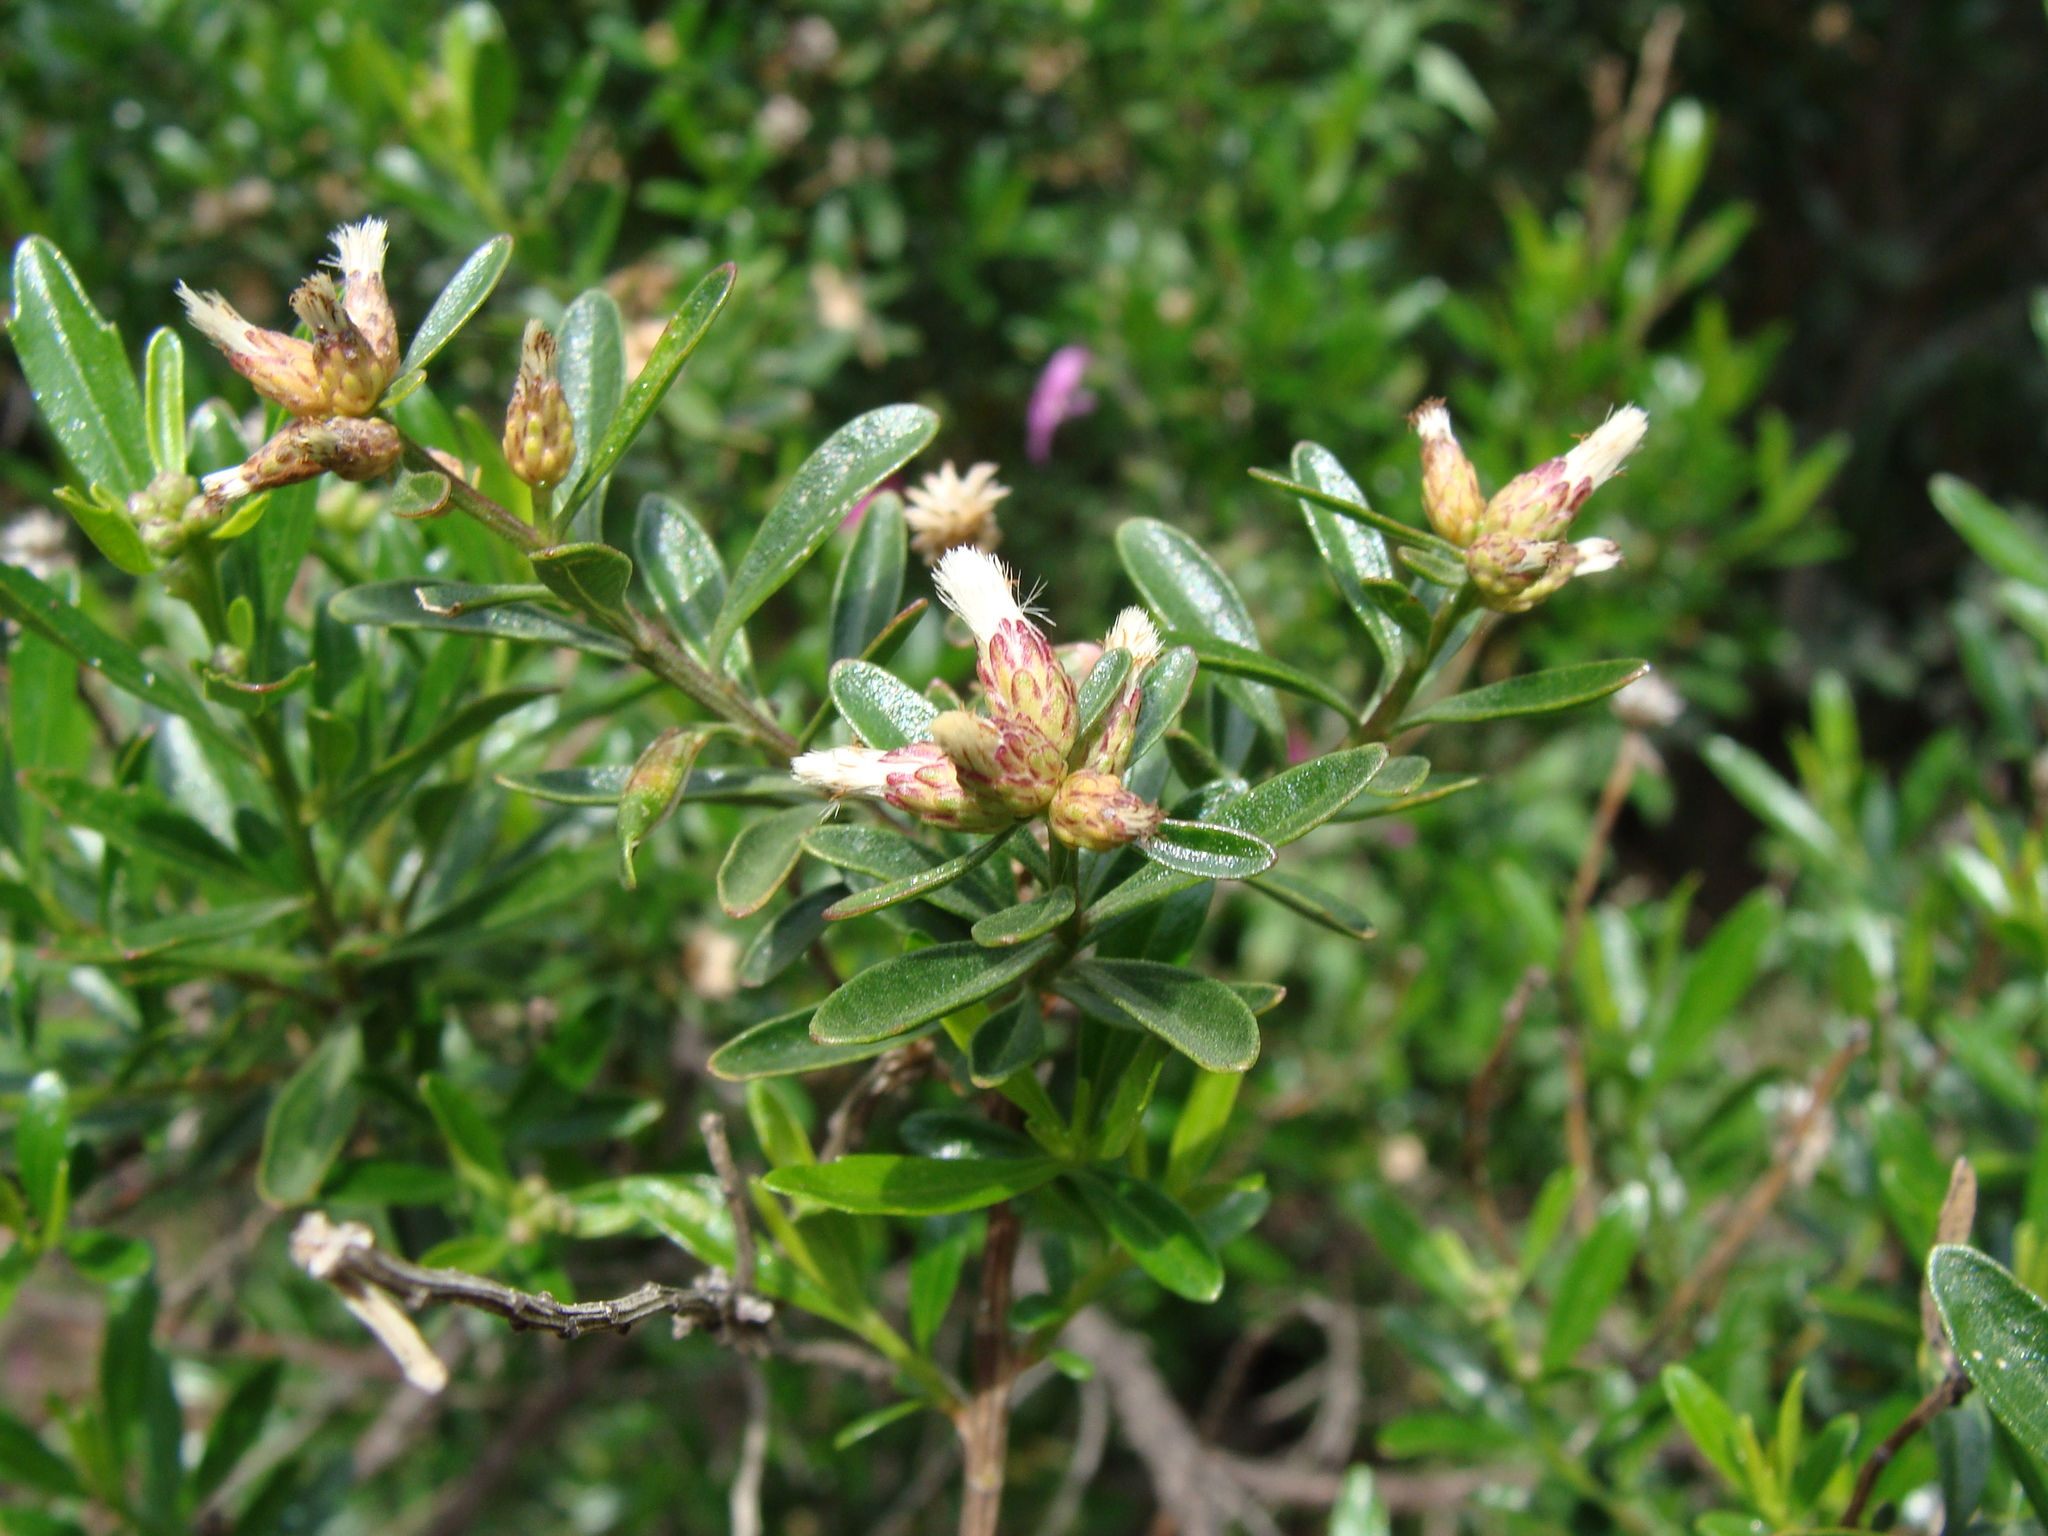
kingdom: Plantae
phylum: Tracheophyta
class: Magnoliopsida
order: Asterales
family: Asteraceae
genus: Baccharis
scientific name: Baccharis heterophylla
